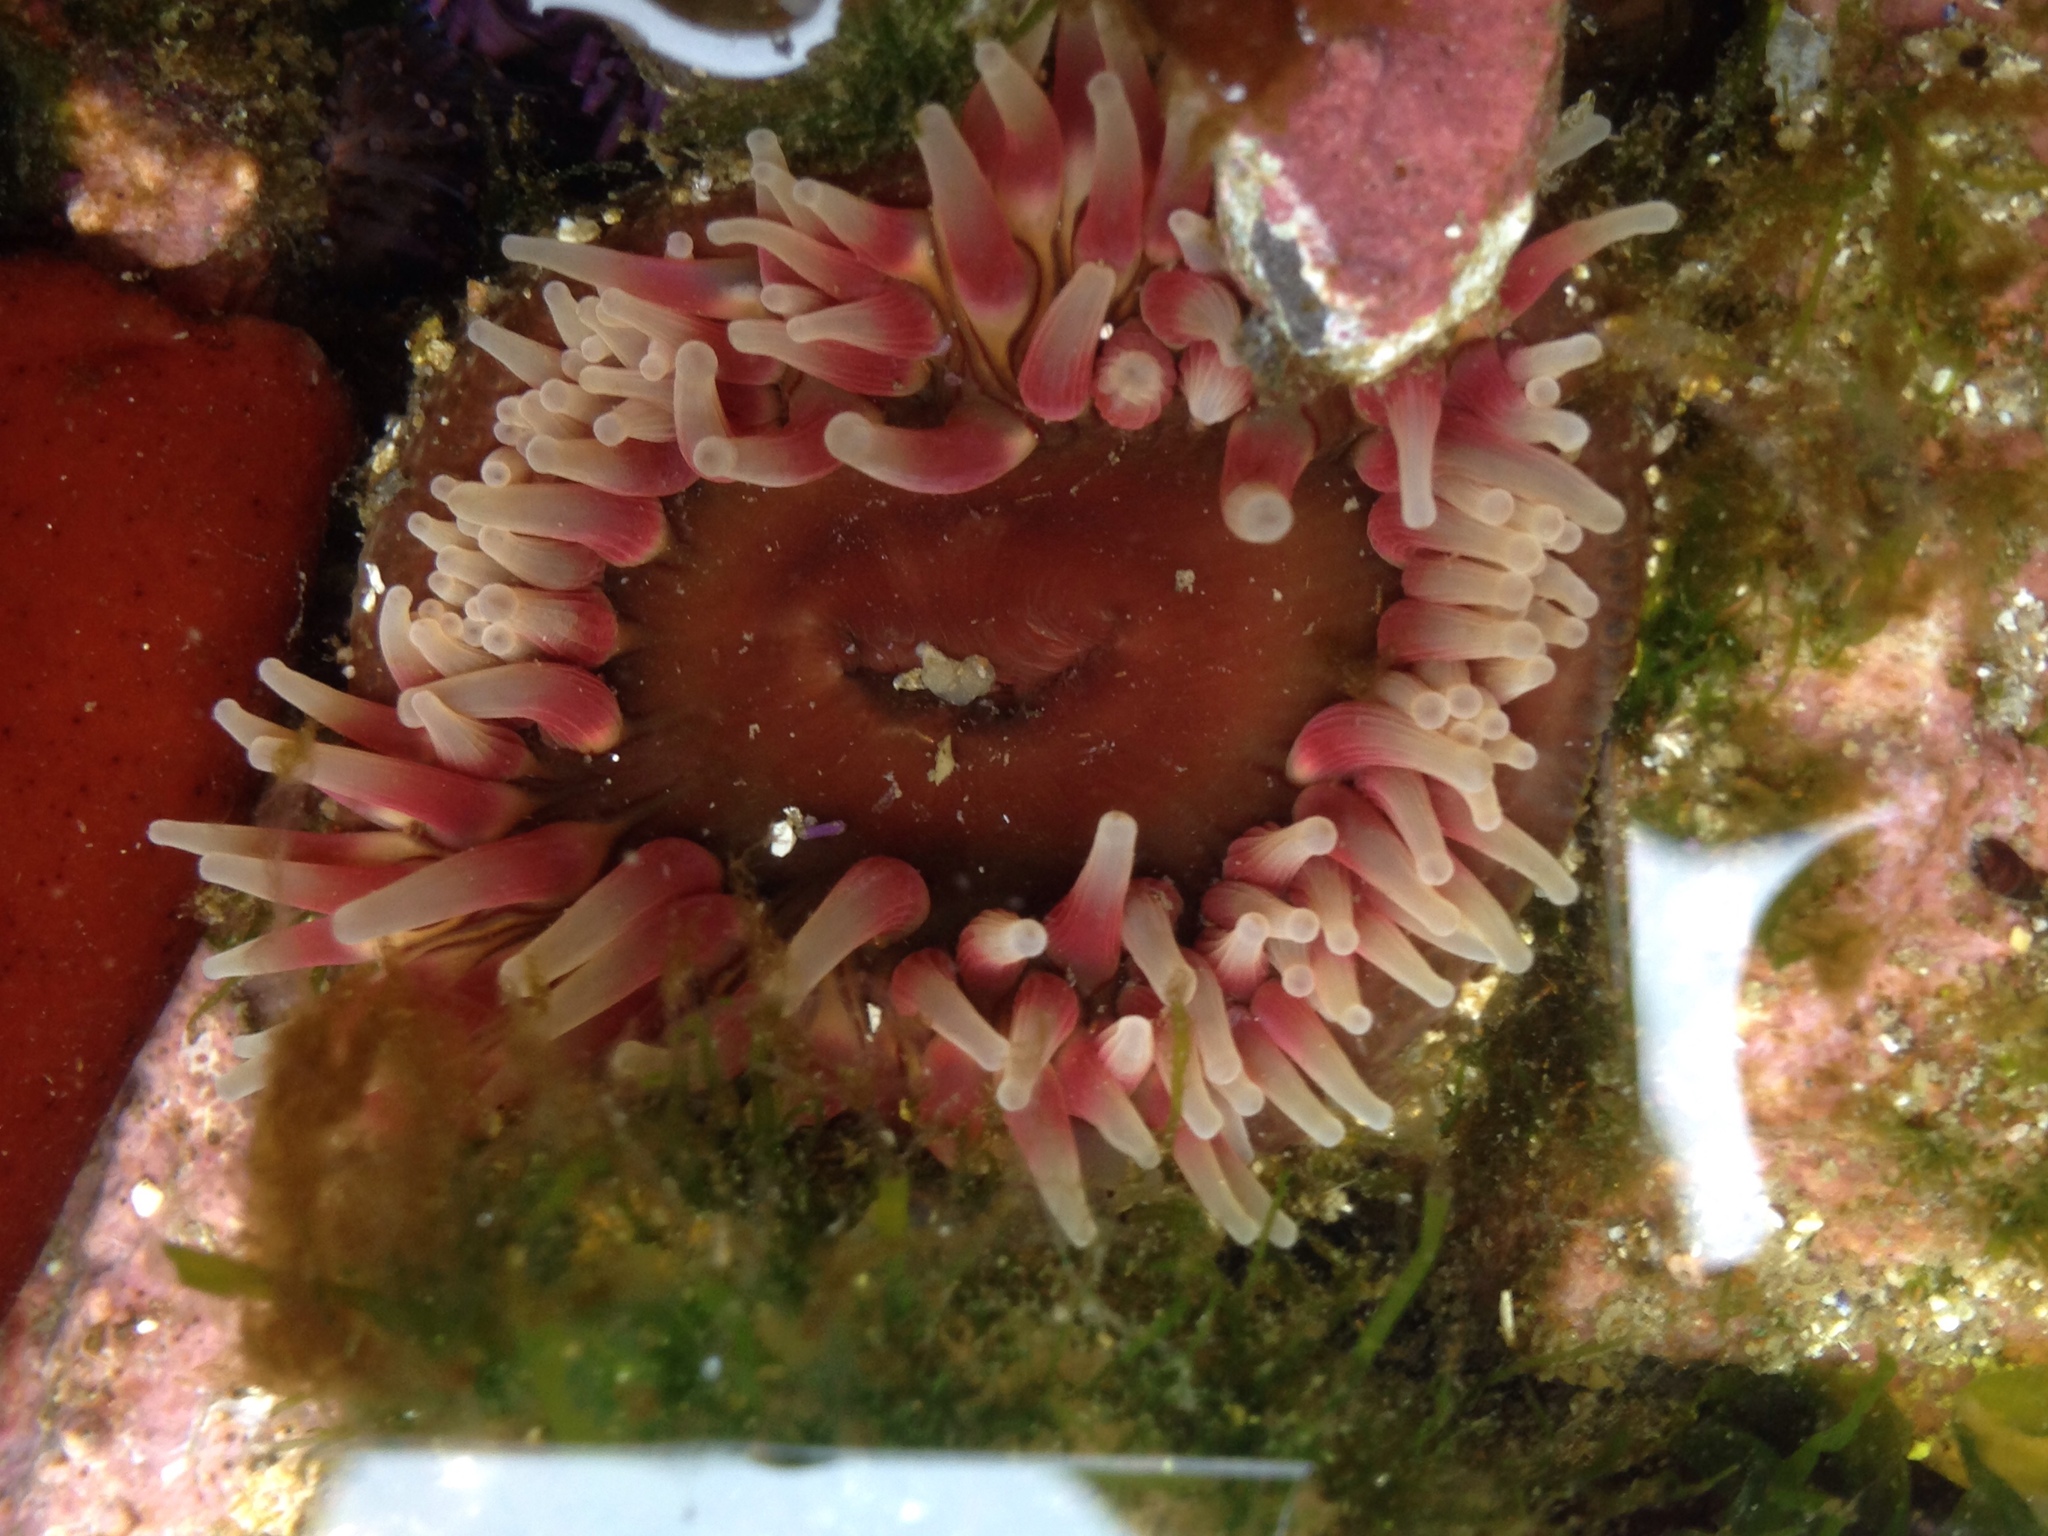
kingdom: Animalia
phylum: Cnidaria
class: Anthozoa
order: Actiniaria
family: Actiniidae
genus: Urticina
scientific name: Urticina clandestina
